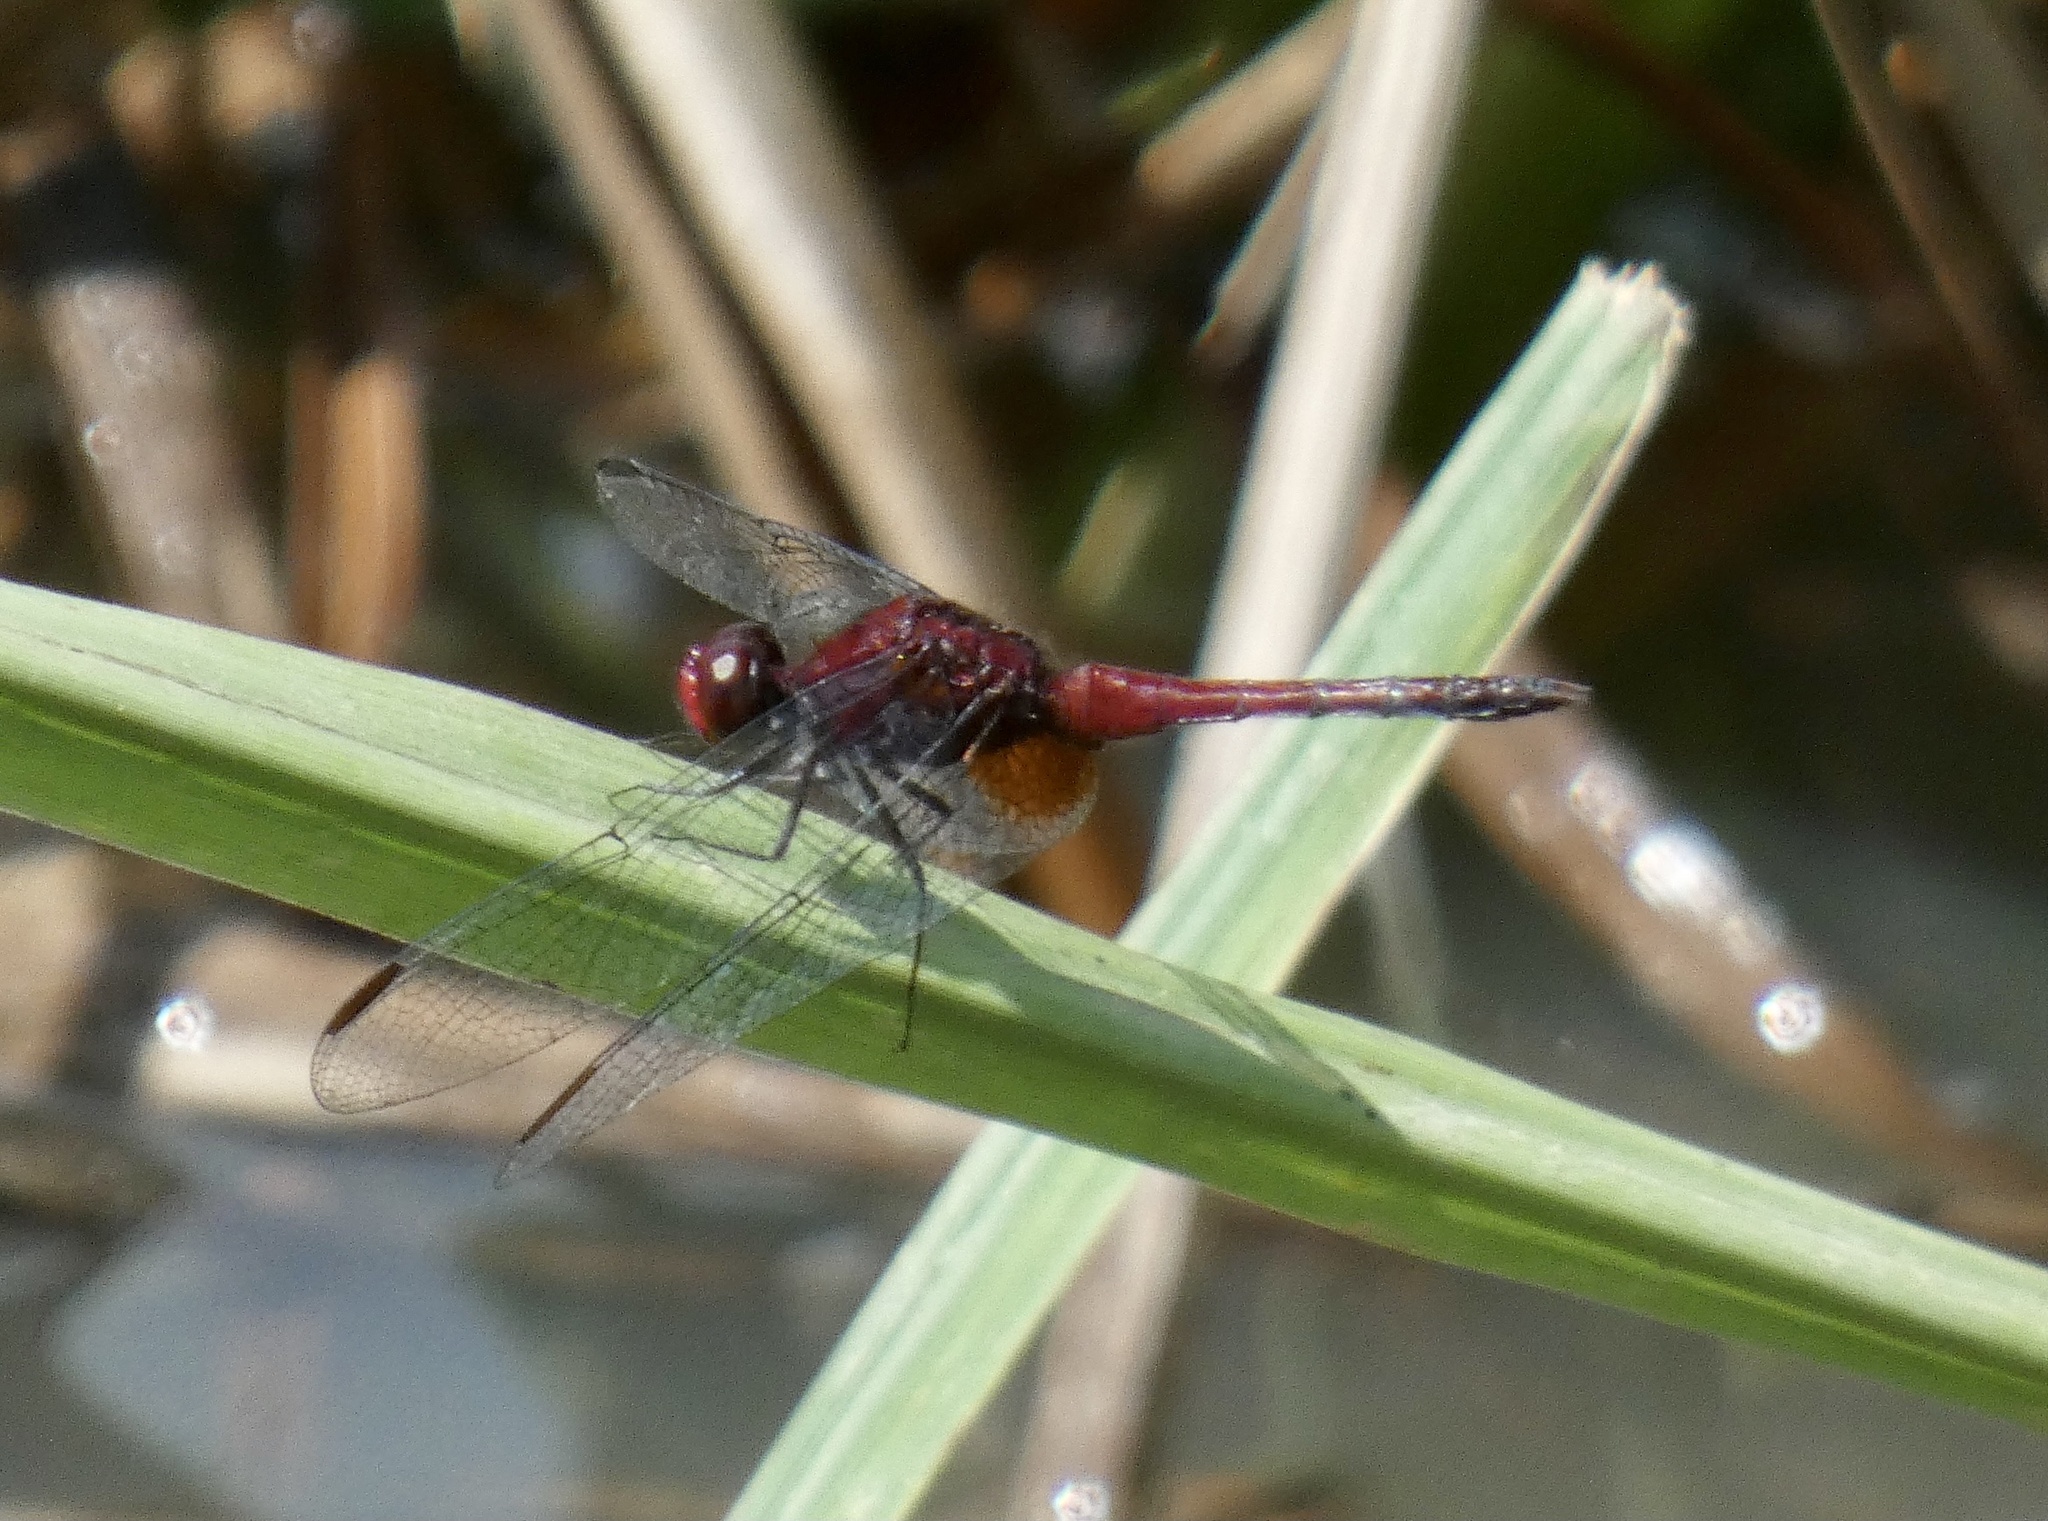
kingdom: Animalia
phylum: Arthropoda
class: Insecta
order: Odonata
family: Libellulidae
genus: Erythrodiplax
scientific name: Erythrodiplax fusca
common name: Red-faced dragonlet
